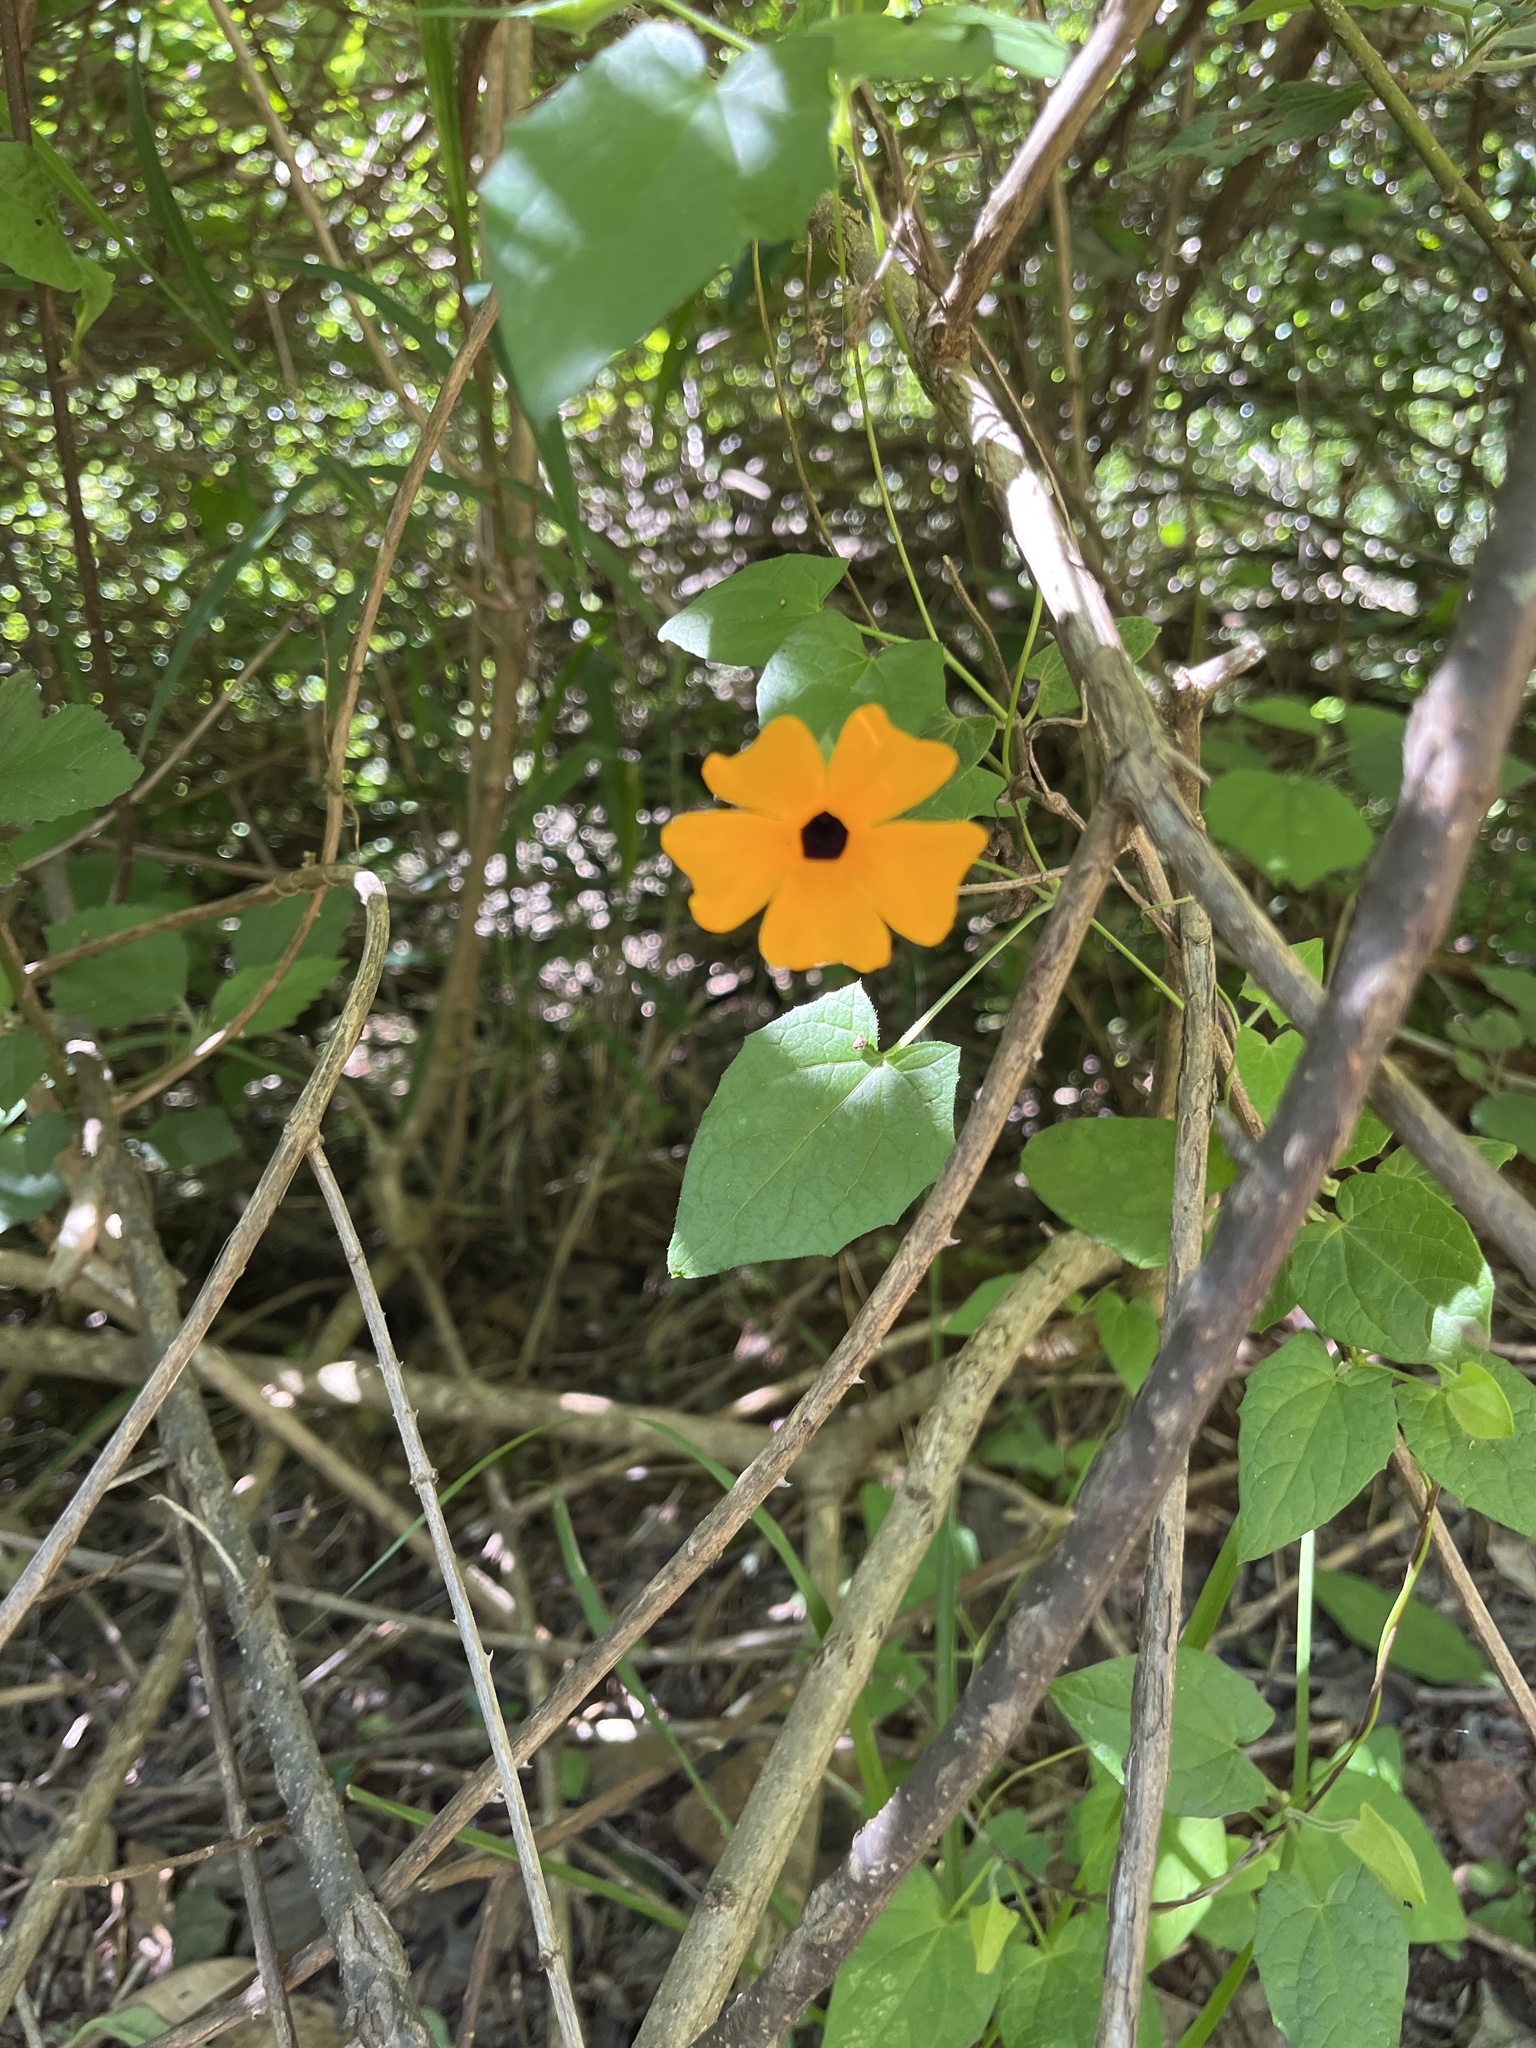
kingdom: Plantae
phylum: Tracheophyta
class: Magnoliopsida
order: Lamiales
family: Acanthaceae
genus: Thunbergia
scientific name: Thunbergia alata
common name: Blackeyed susan vine
